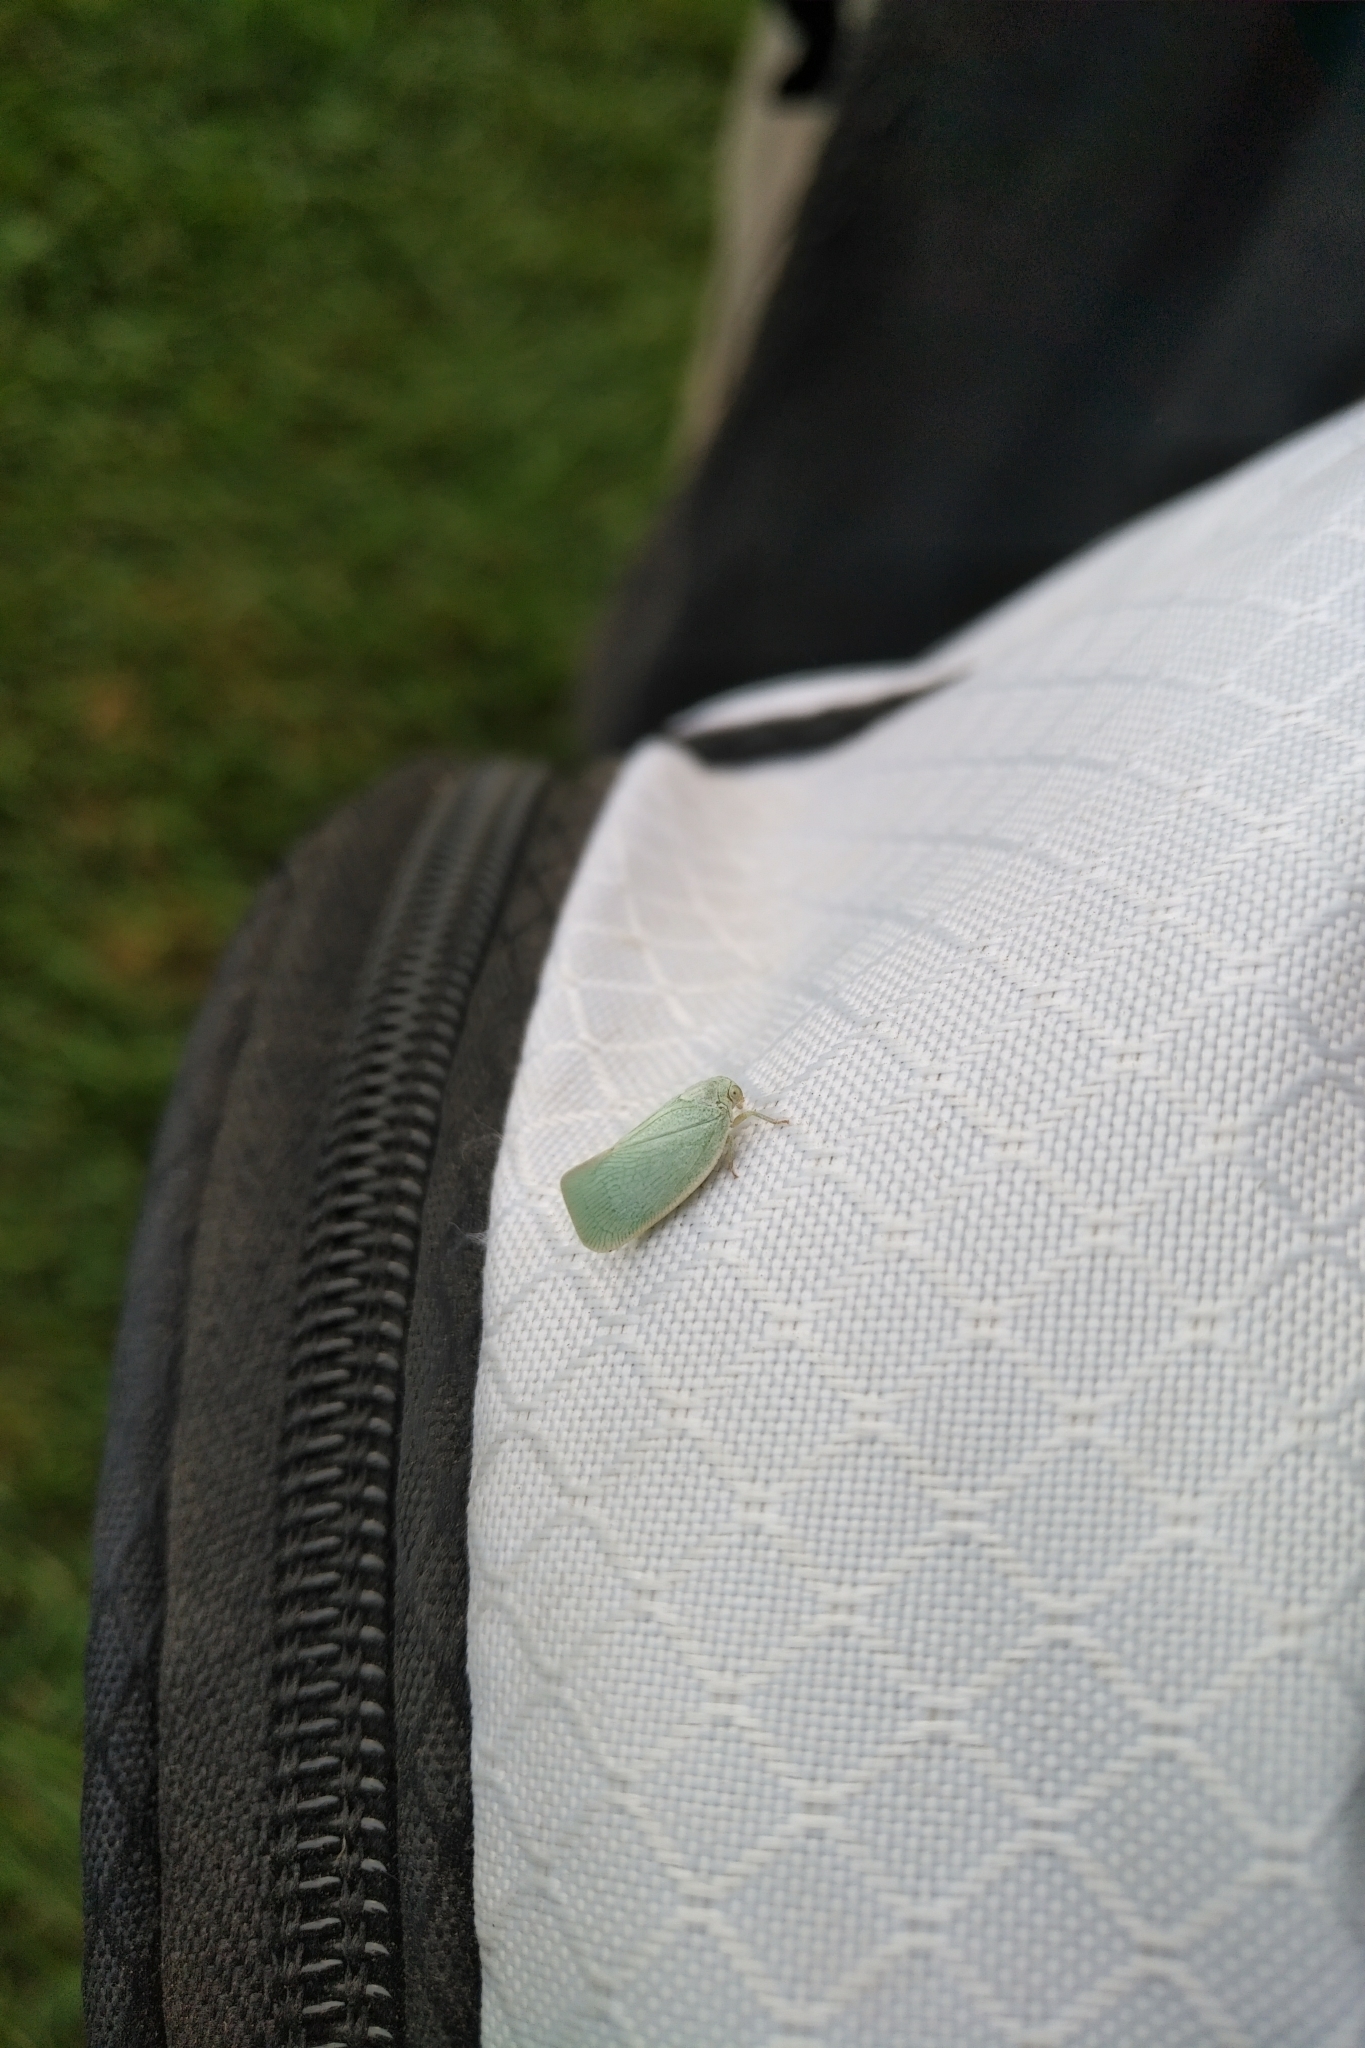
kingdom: Animalia
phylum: Arthropoda
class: Insecta
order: Hemiptera
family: Flatidae
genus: Flatormenis
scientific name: Flatormenis proxima
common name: Northern flatid planthopper
